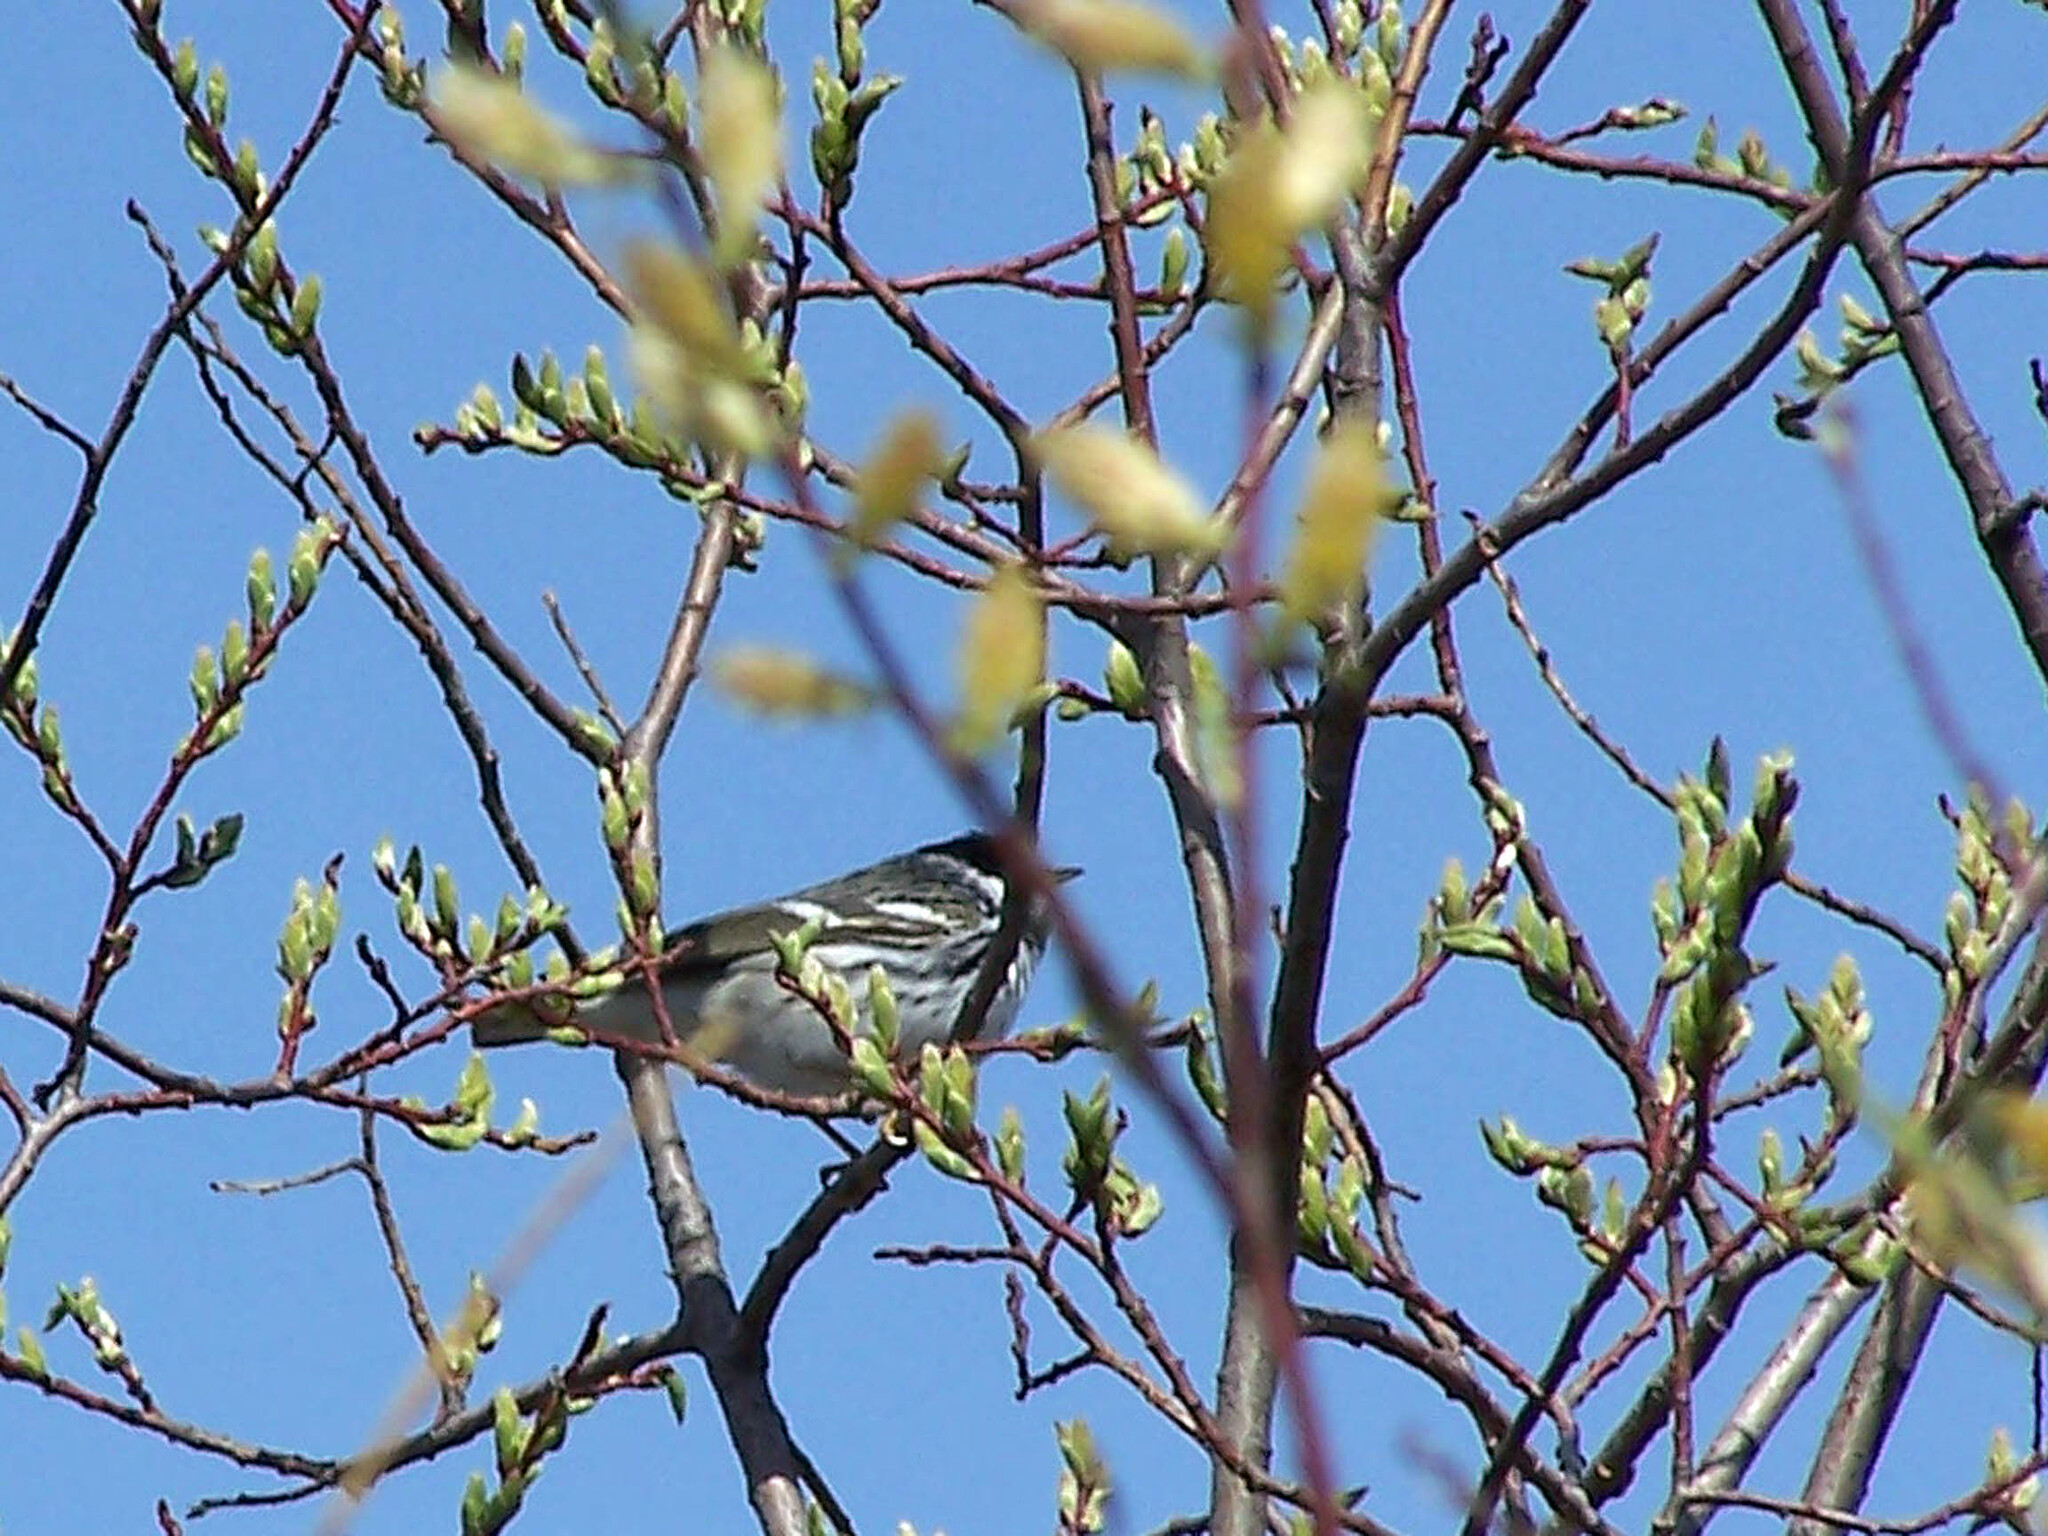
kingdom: Animalia
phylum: Chordata
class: Aves
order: Passeriformes
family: Parulidae
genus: Setophaga
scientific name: Setophaga striata
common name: Blackpoll warbler
